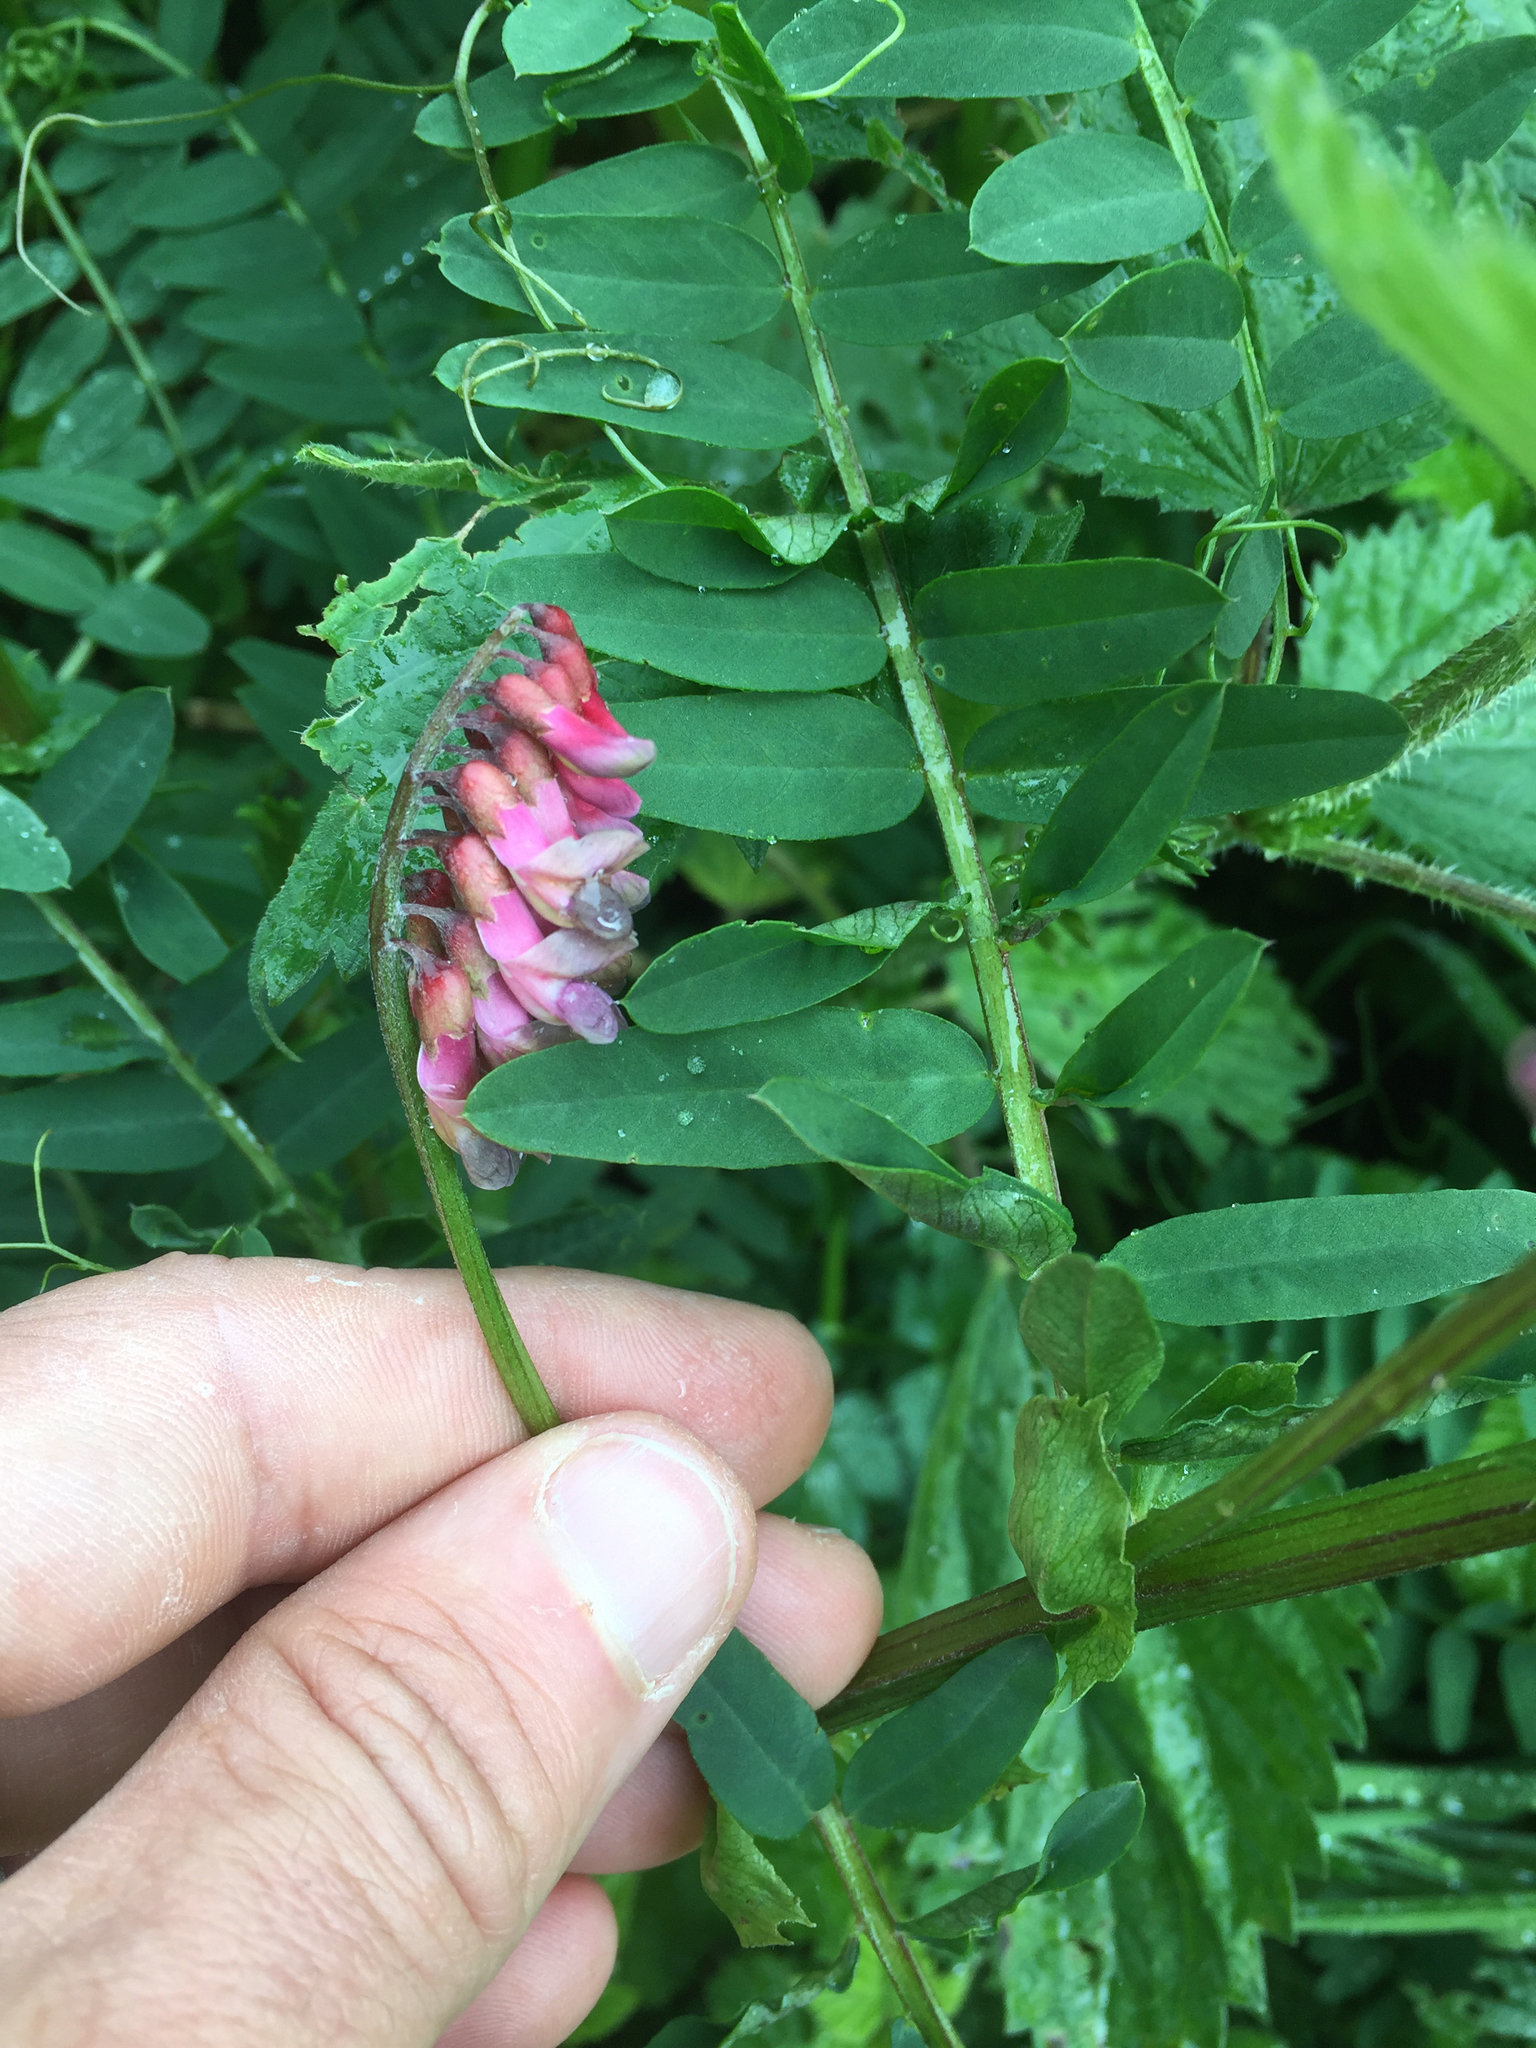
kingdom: Plantae
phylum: Tracheophyta
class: Magnoliopsida
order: Fabales
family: Fabaceae
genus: Vicia
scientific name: Vicia
